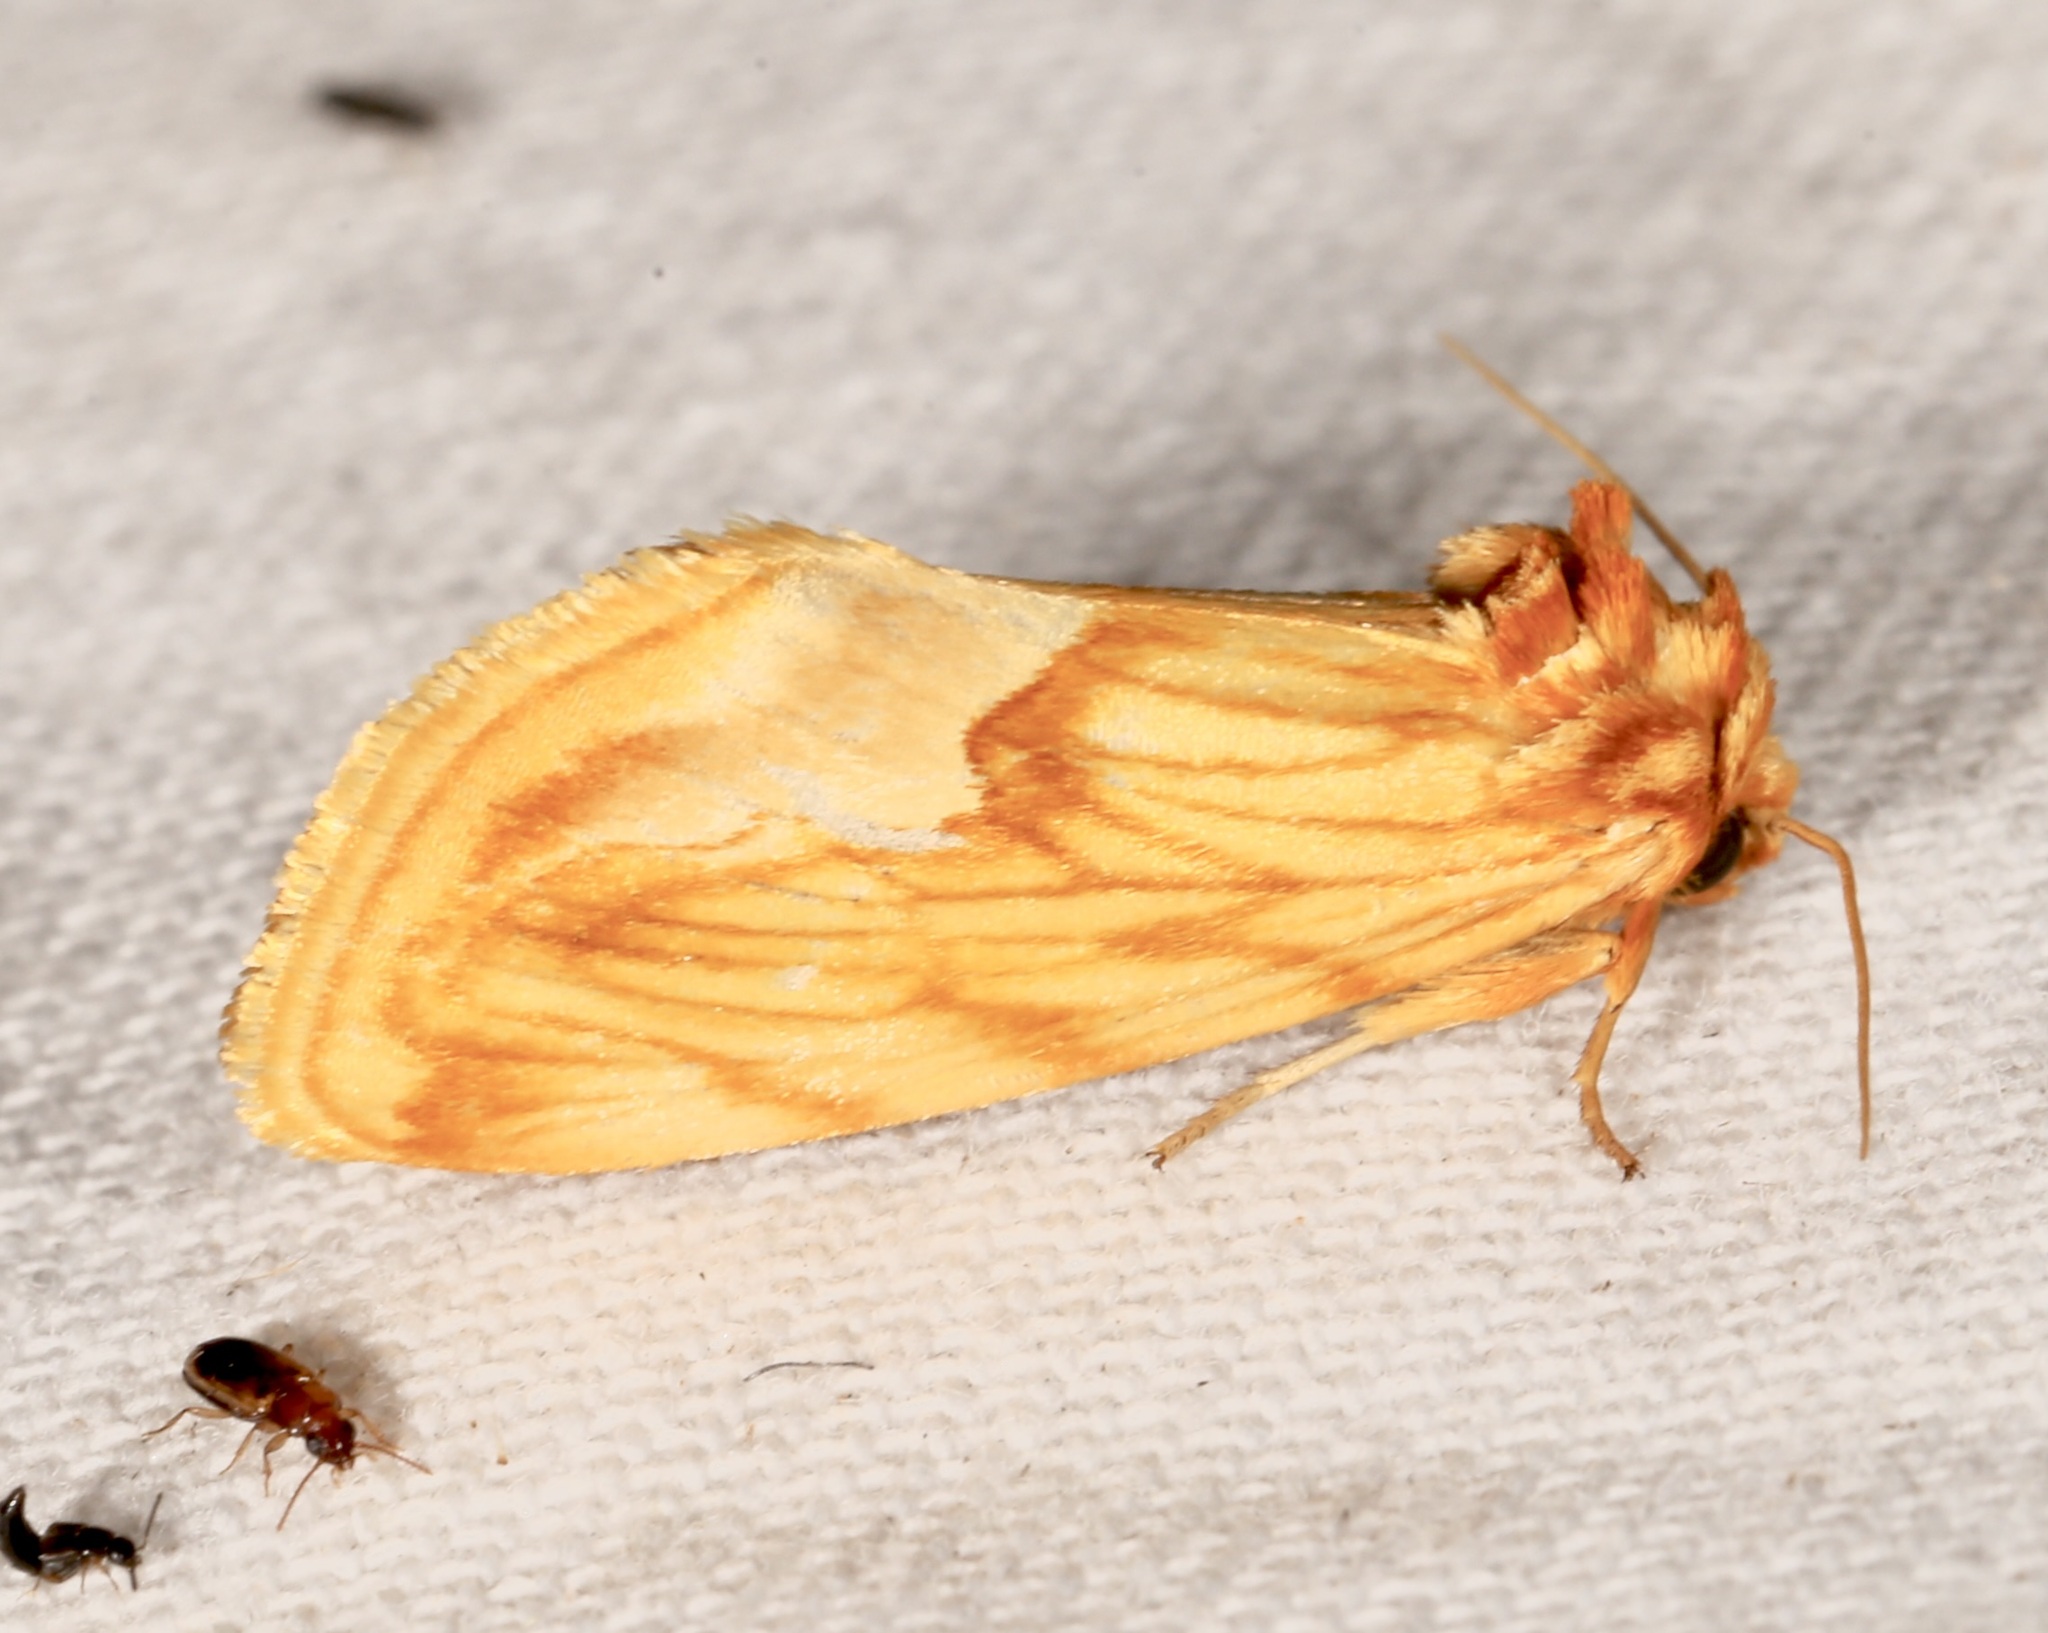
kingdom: Animalia
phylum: Arthropoda
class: Insecta
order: Lepidoptera
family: Noctuidae
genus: Cirrhophanus
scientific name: Cirrhophanus dyari
